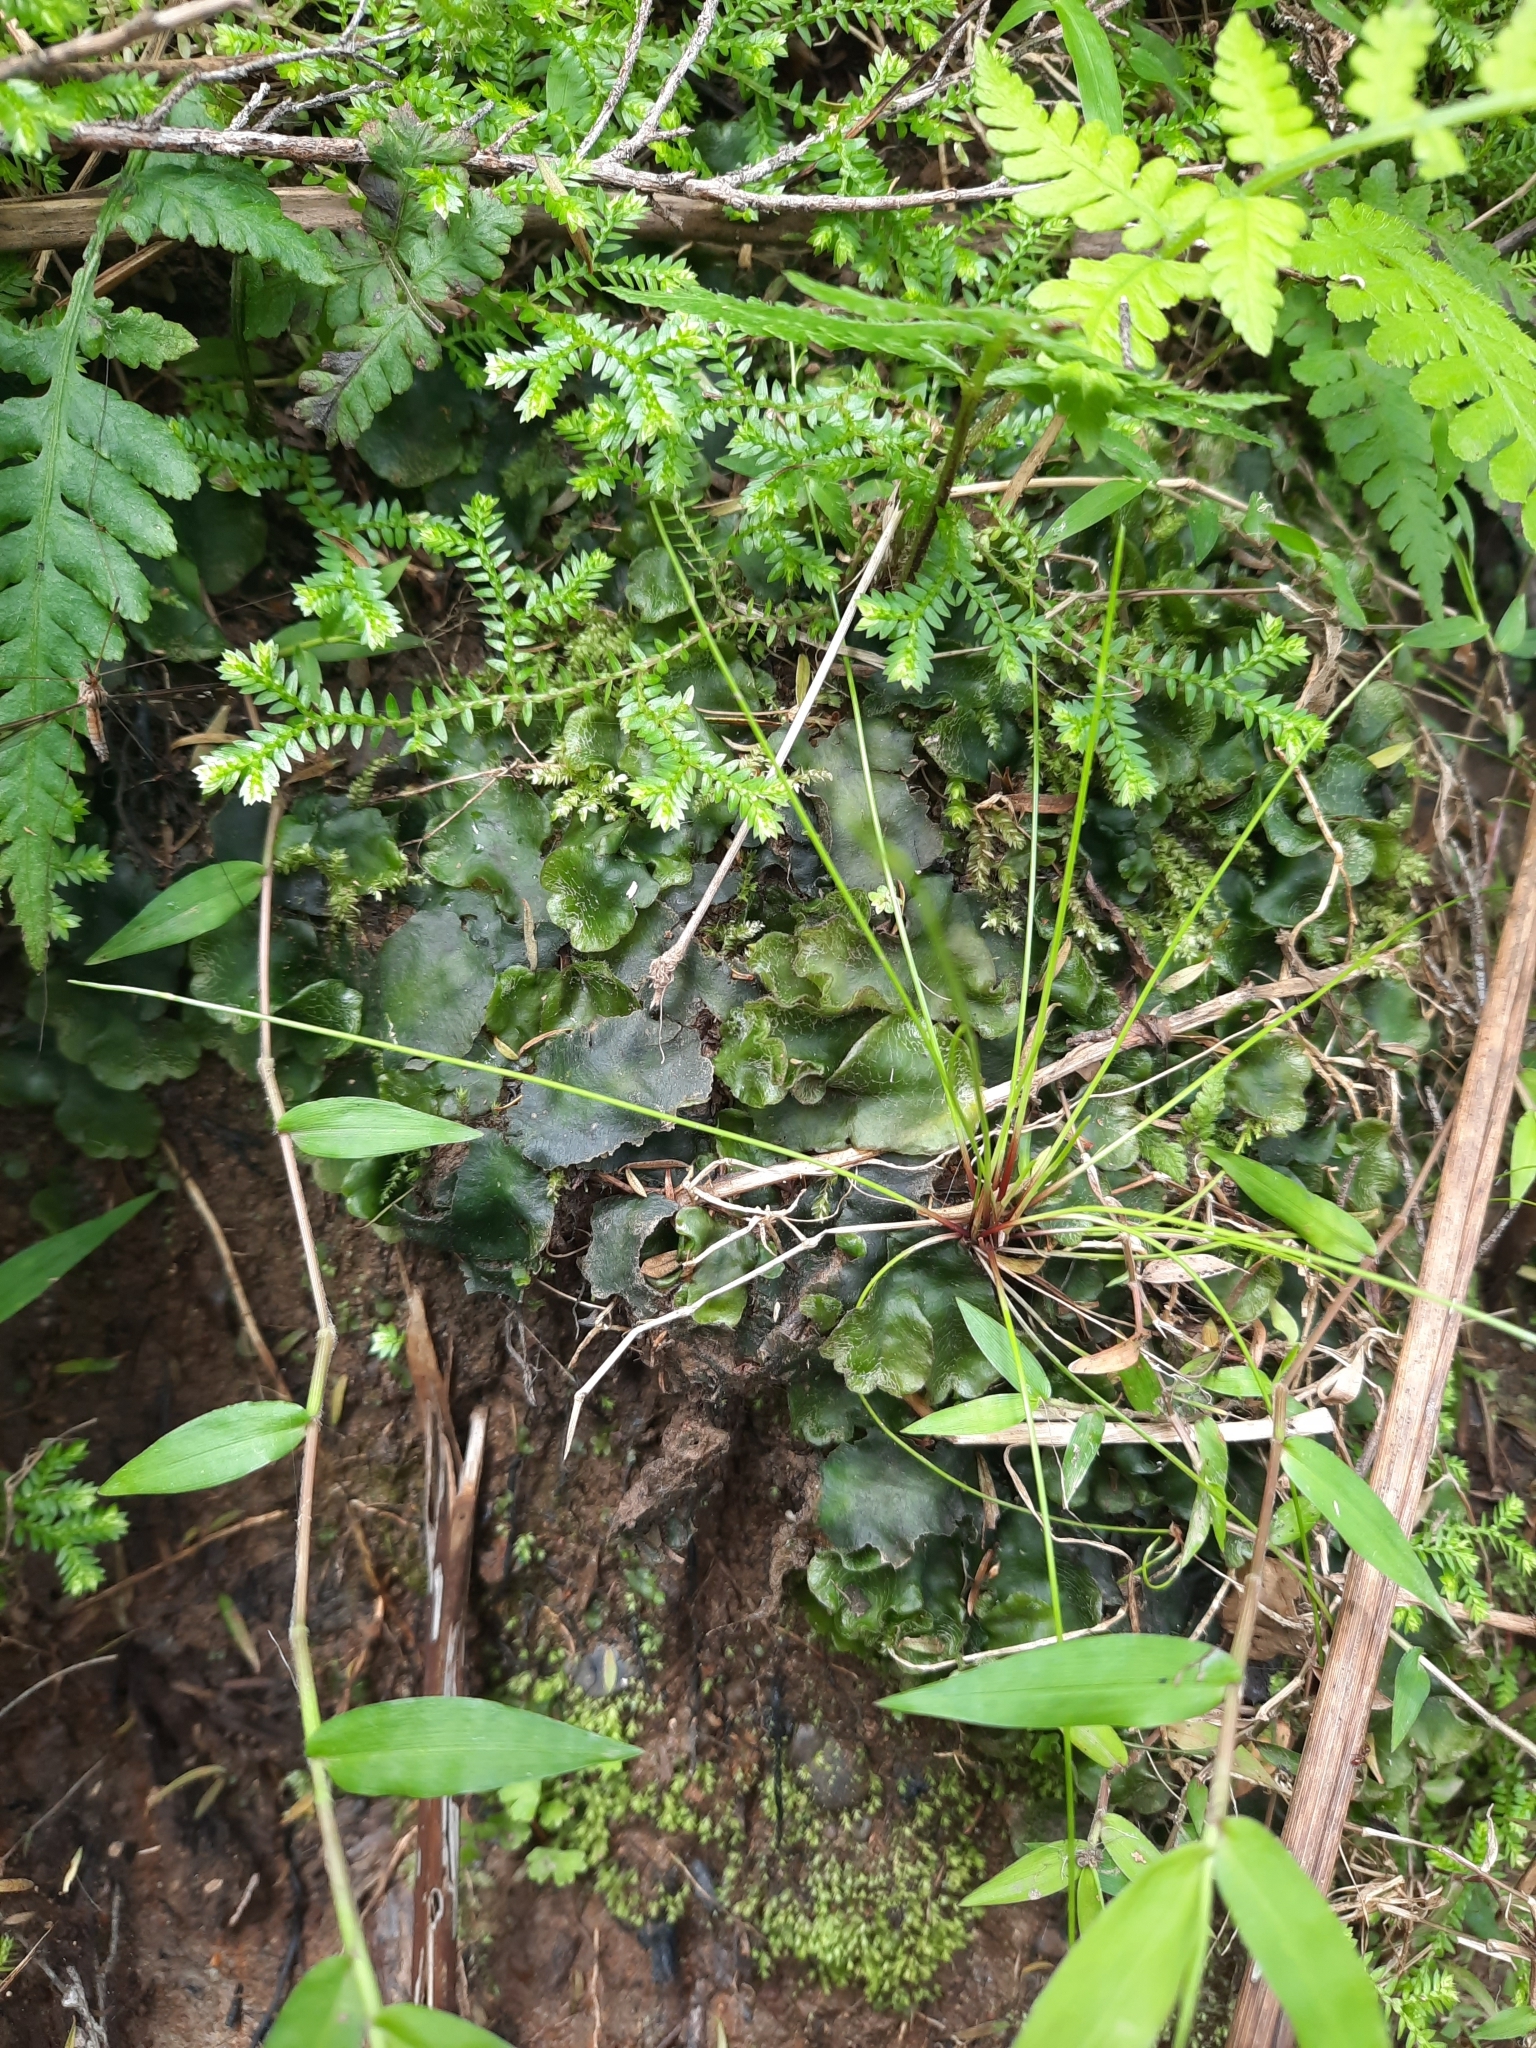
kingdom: Plantae
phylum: Marchantiophyta
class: Marchantiopsida
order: Marchantiales
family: Dumortieraceae
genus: Dumortiera
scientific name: Dumortiera hirsuta
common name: Dumortier's liverwort
